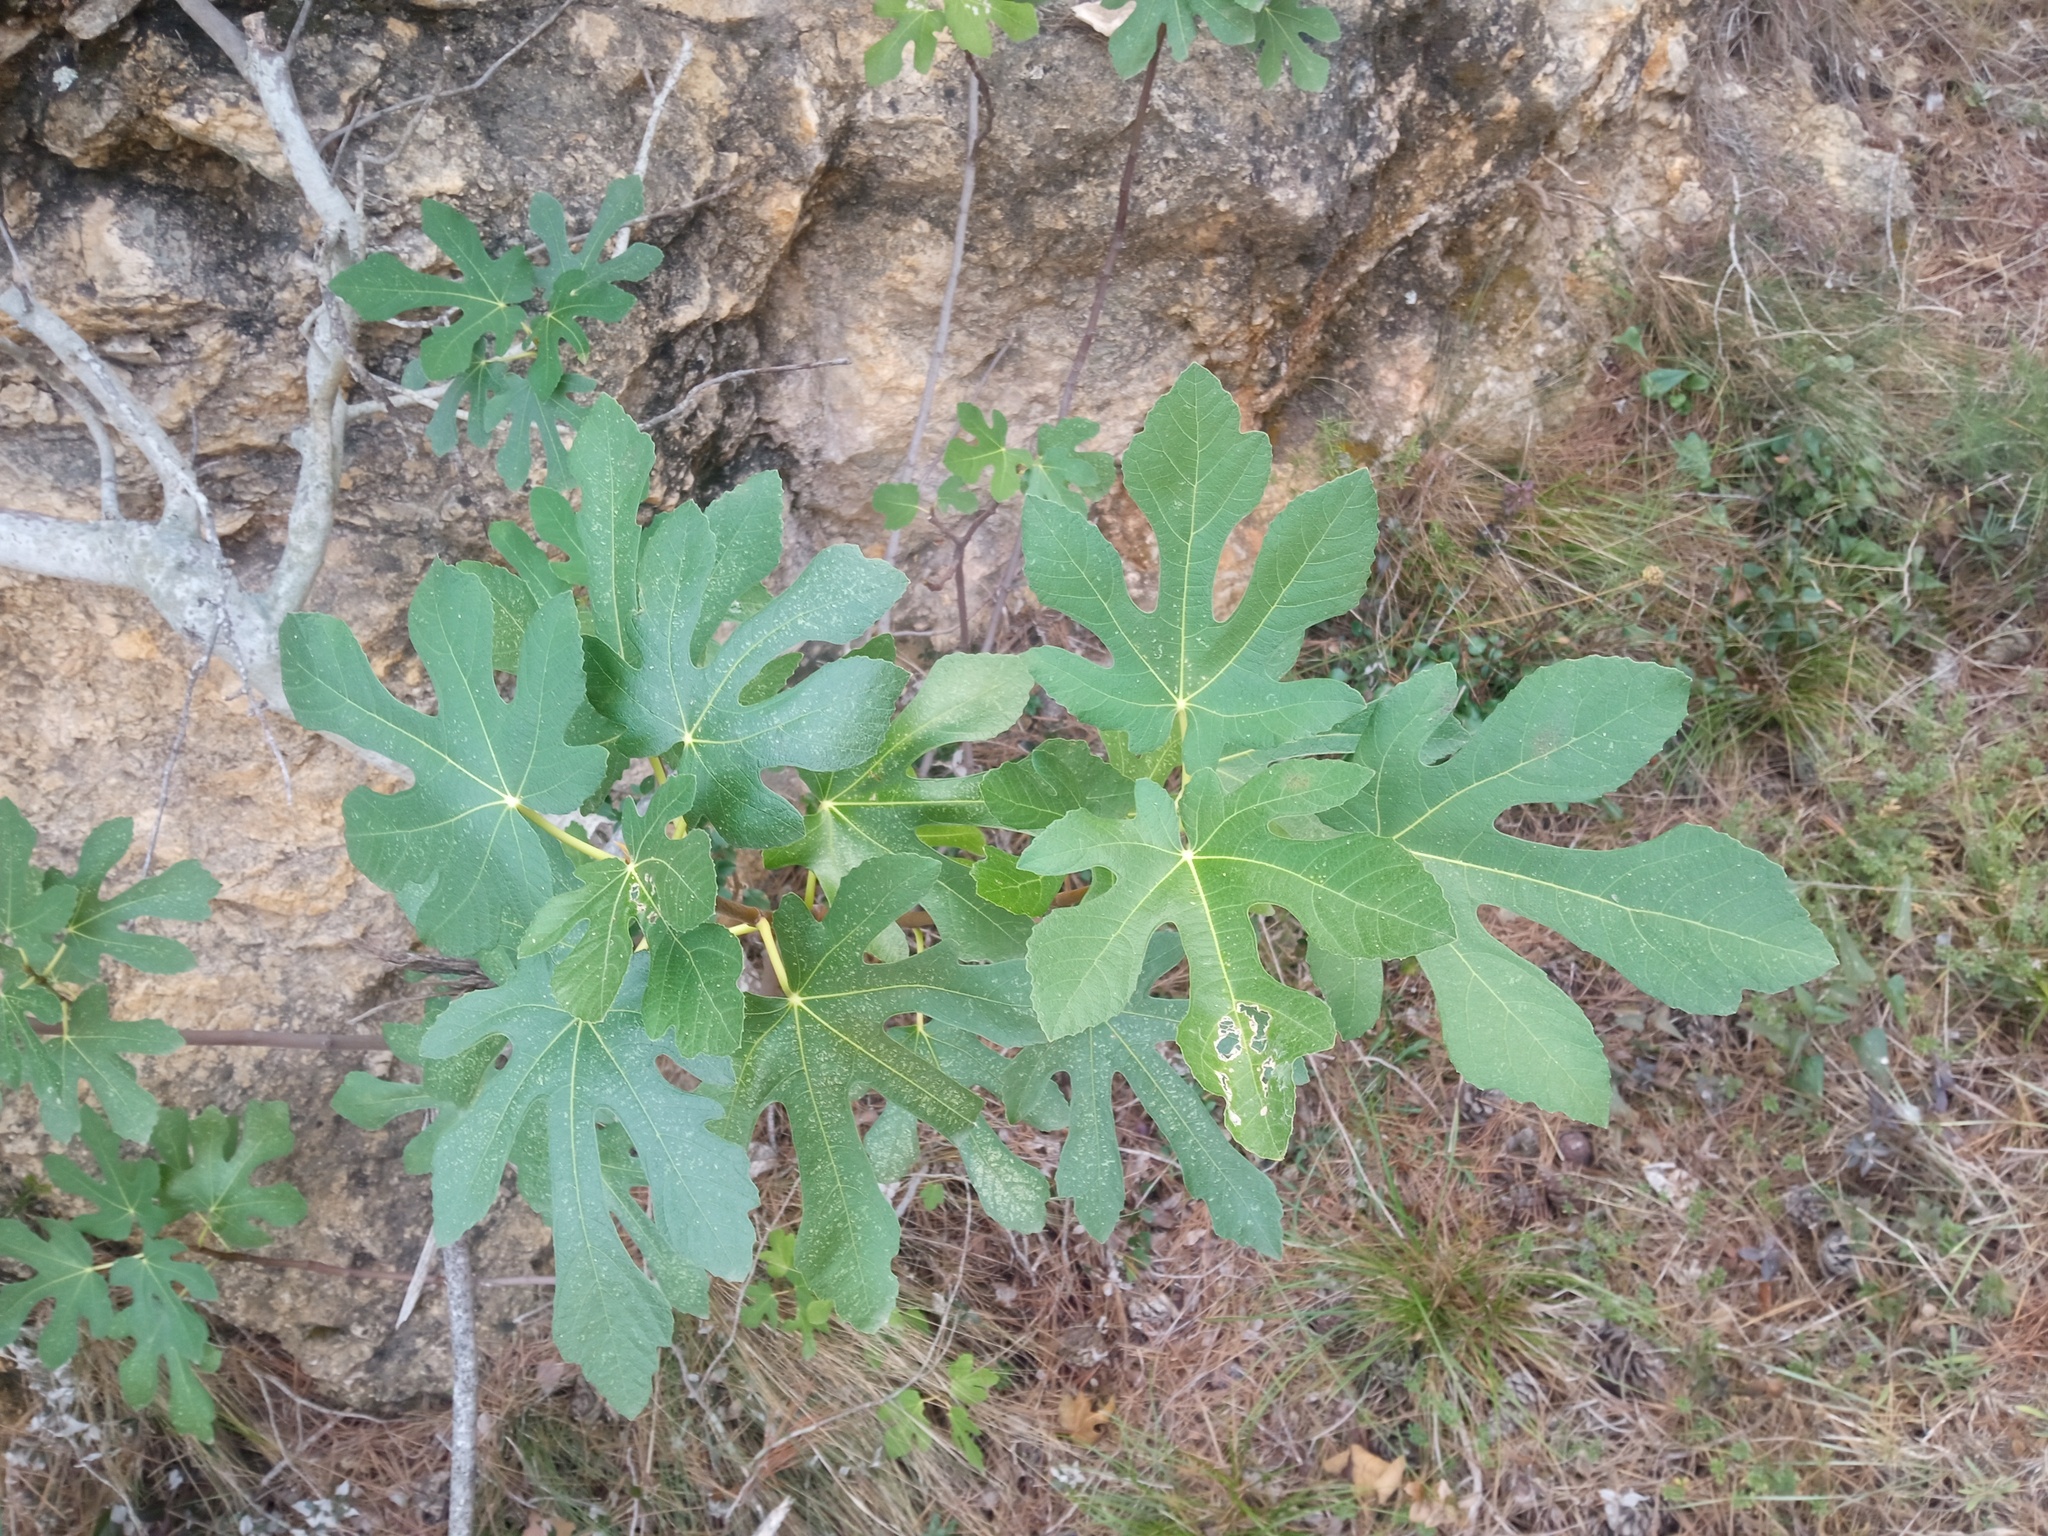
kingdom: Plantae
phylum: Tracheophyta
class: Magnoliopsida
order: Rosales
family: Moraceae
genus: Ficus
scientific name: Ficus carica
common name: Fig
